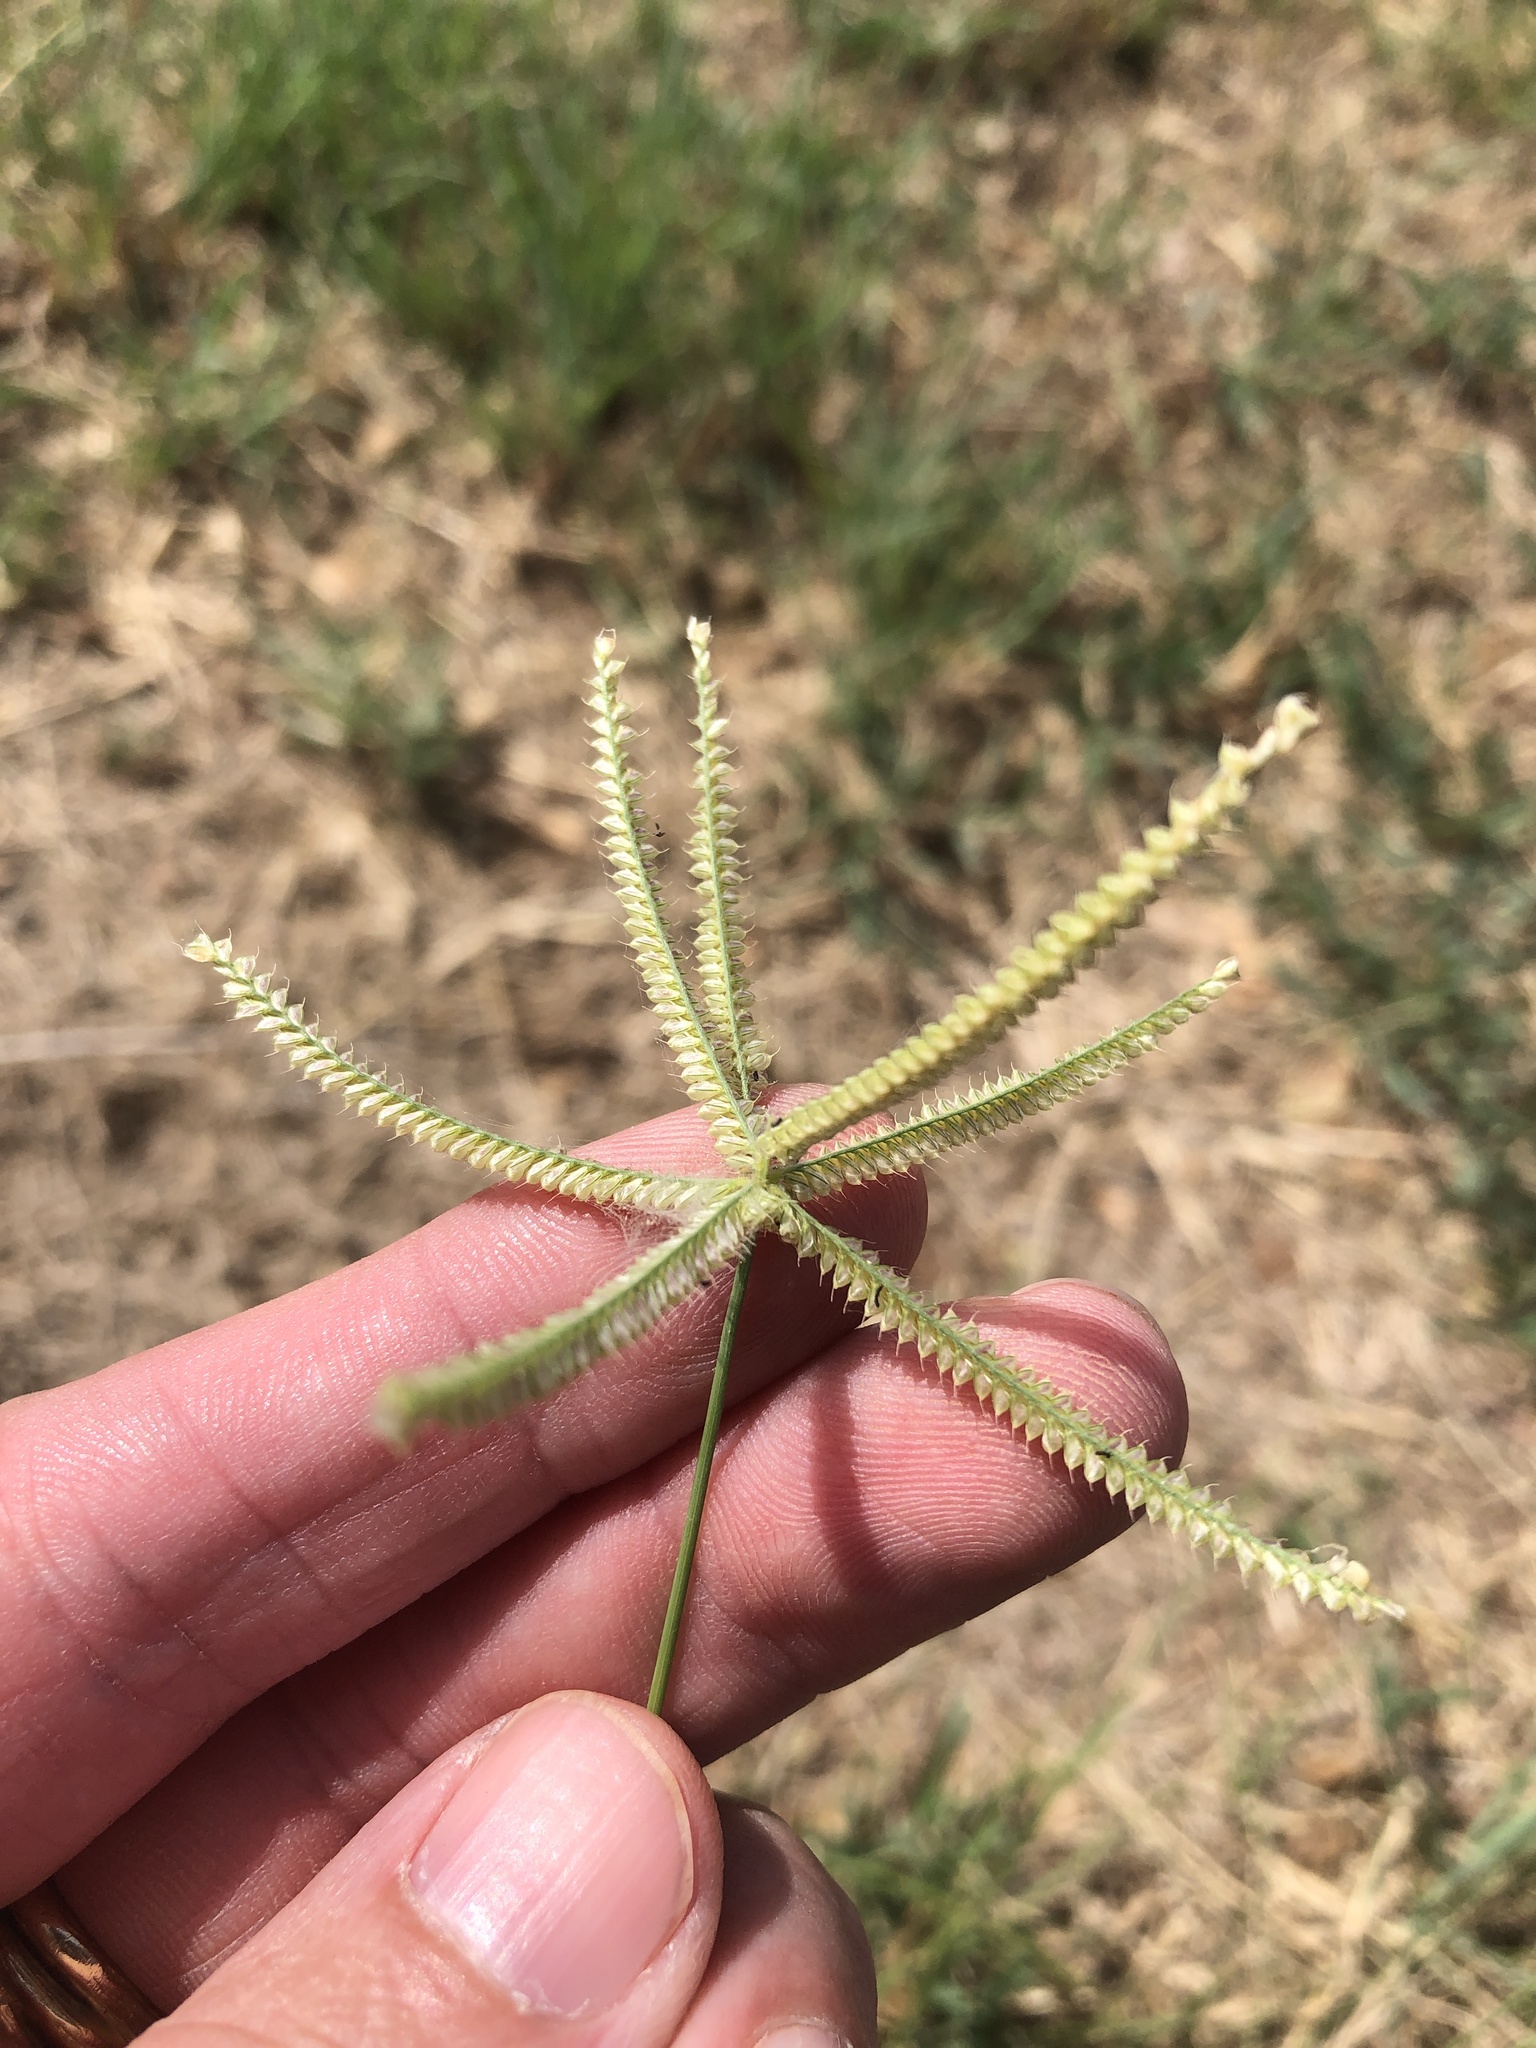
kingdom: Plantae
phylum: Tracheophyta
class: Liliopsida
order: Poales
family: Poaceae
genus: Chloris
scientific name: Chloris cucullata
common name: Hooded windmill grass
